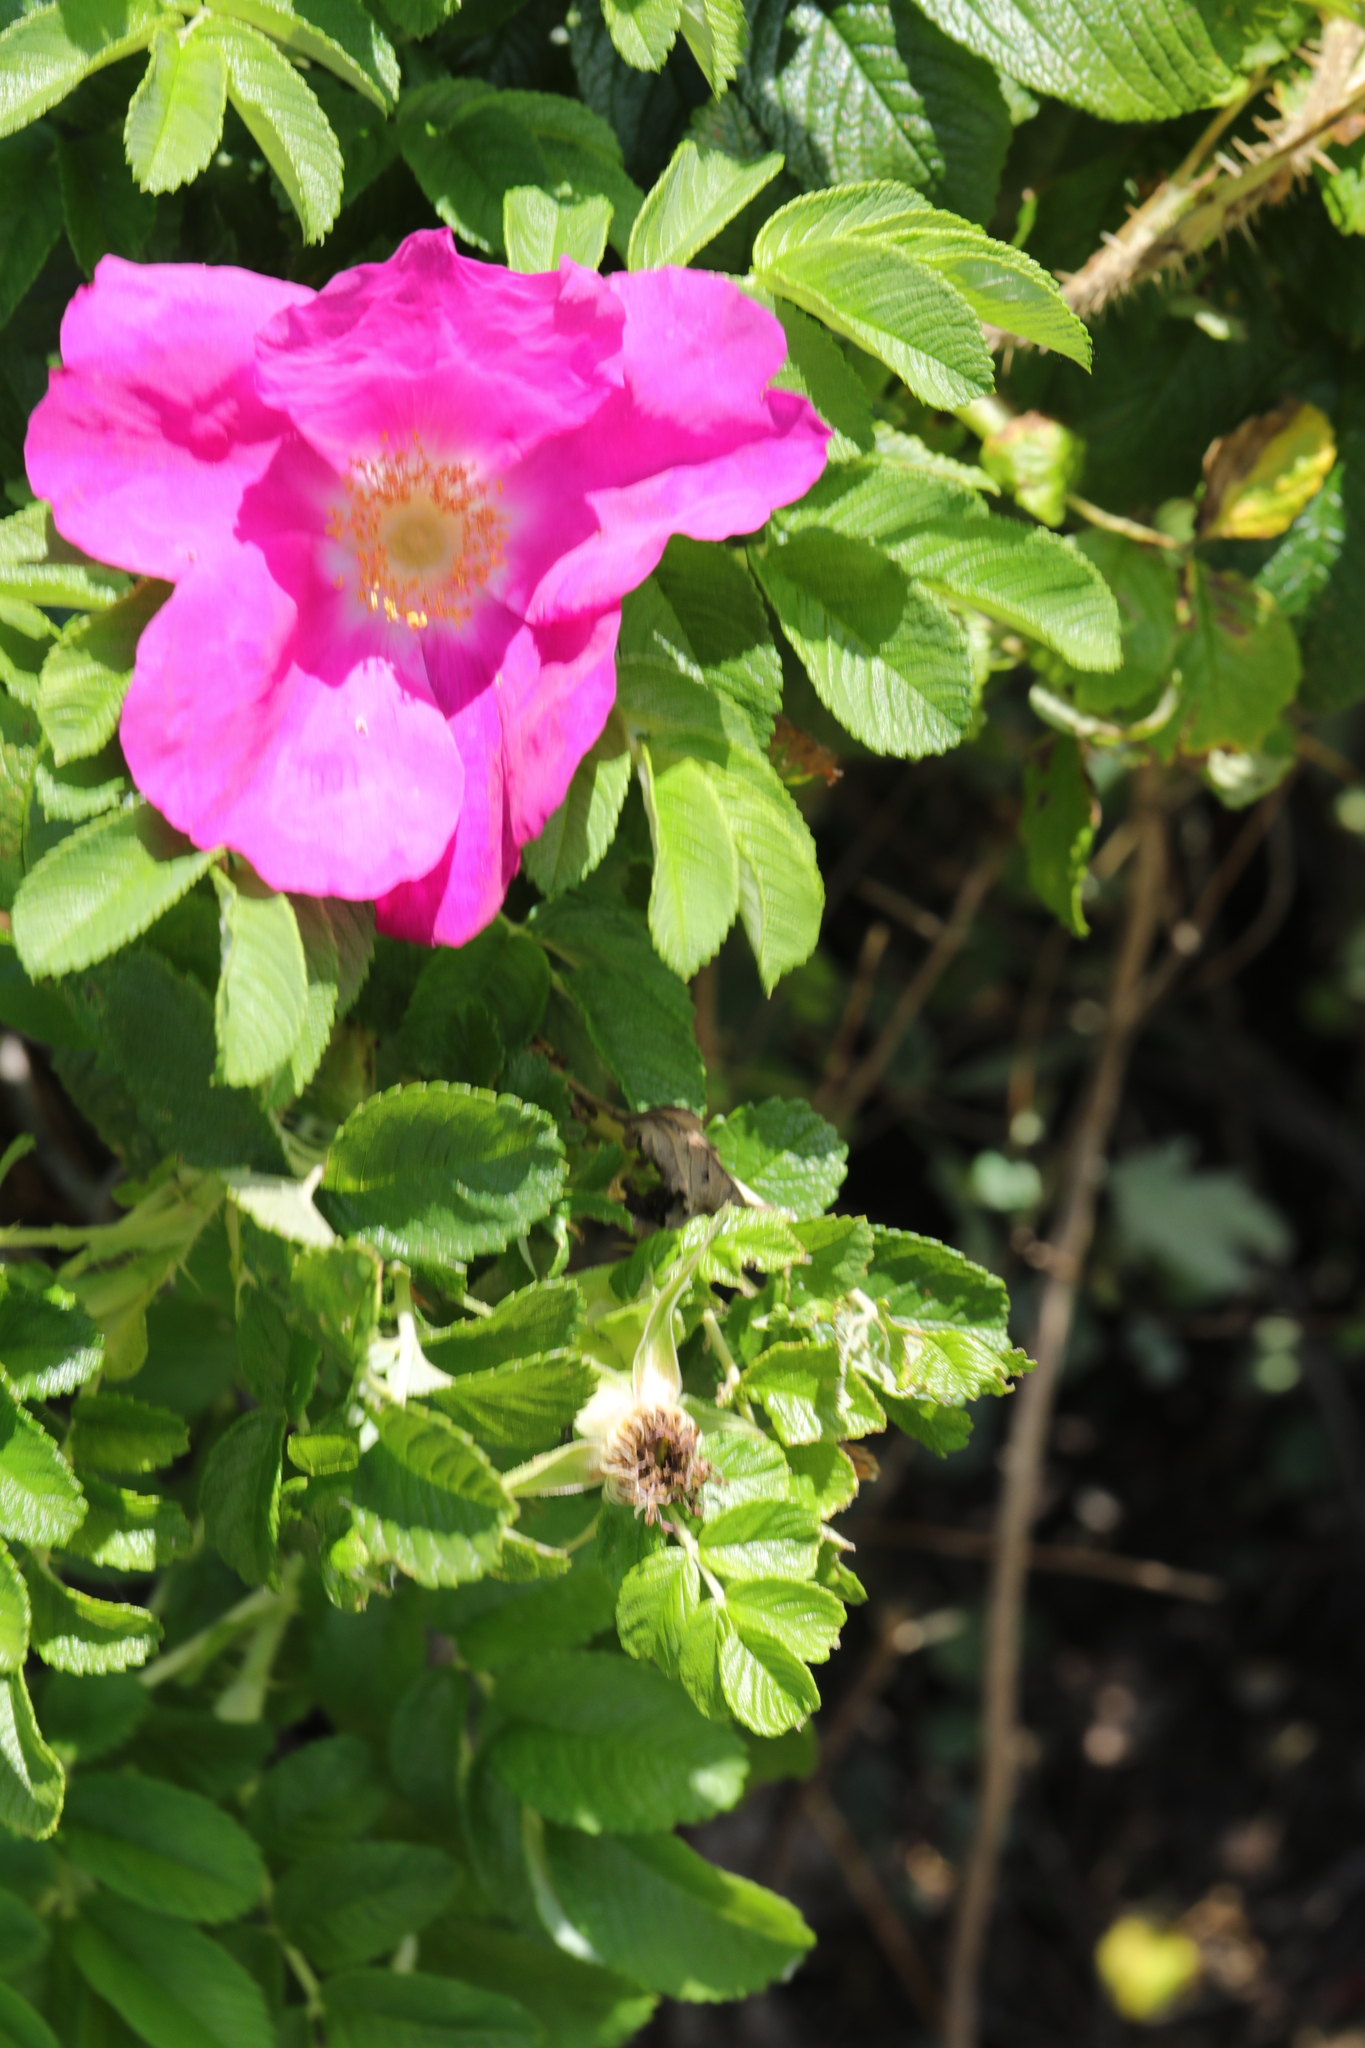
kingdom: Plantae
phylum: Tracheophyta
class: Magnoliopsida
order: Rosales
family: Rosaceae
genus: Rosa
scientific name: Rosa rugosa
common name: Japanese rose
